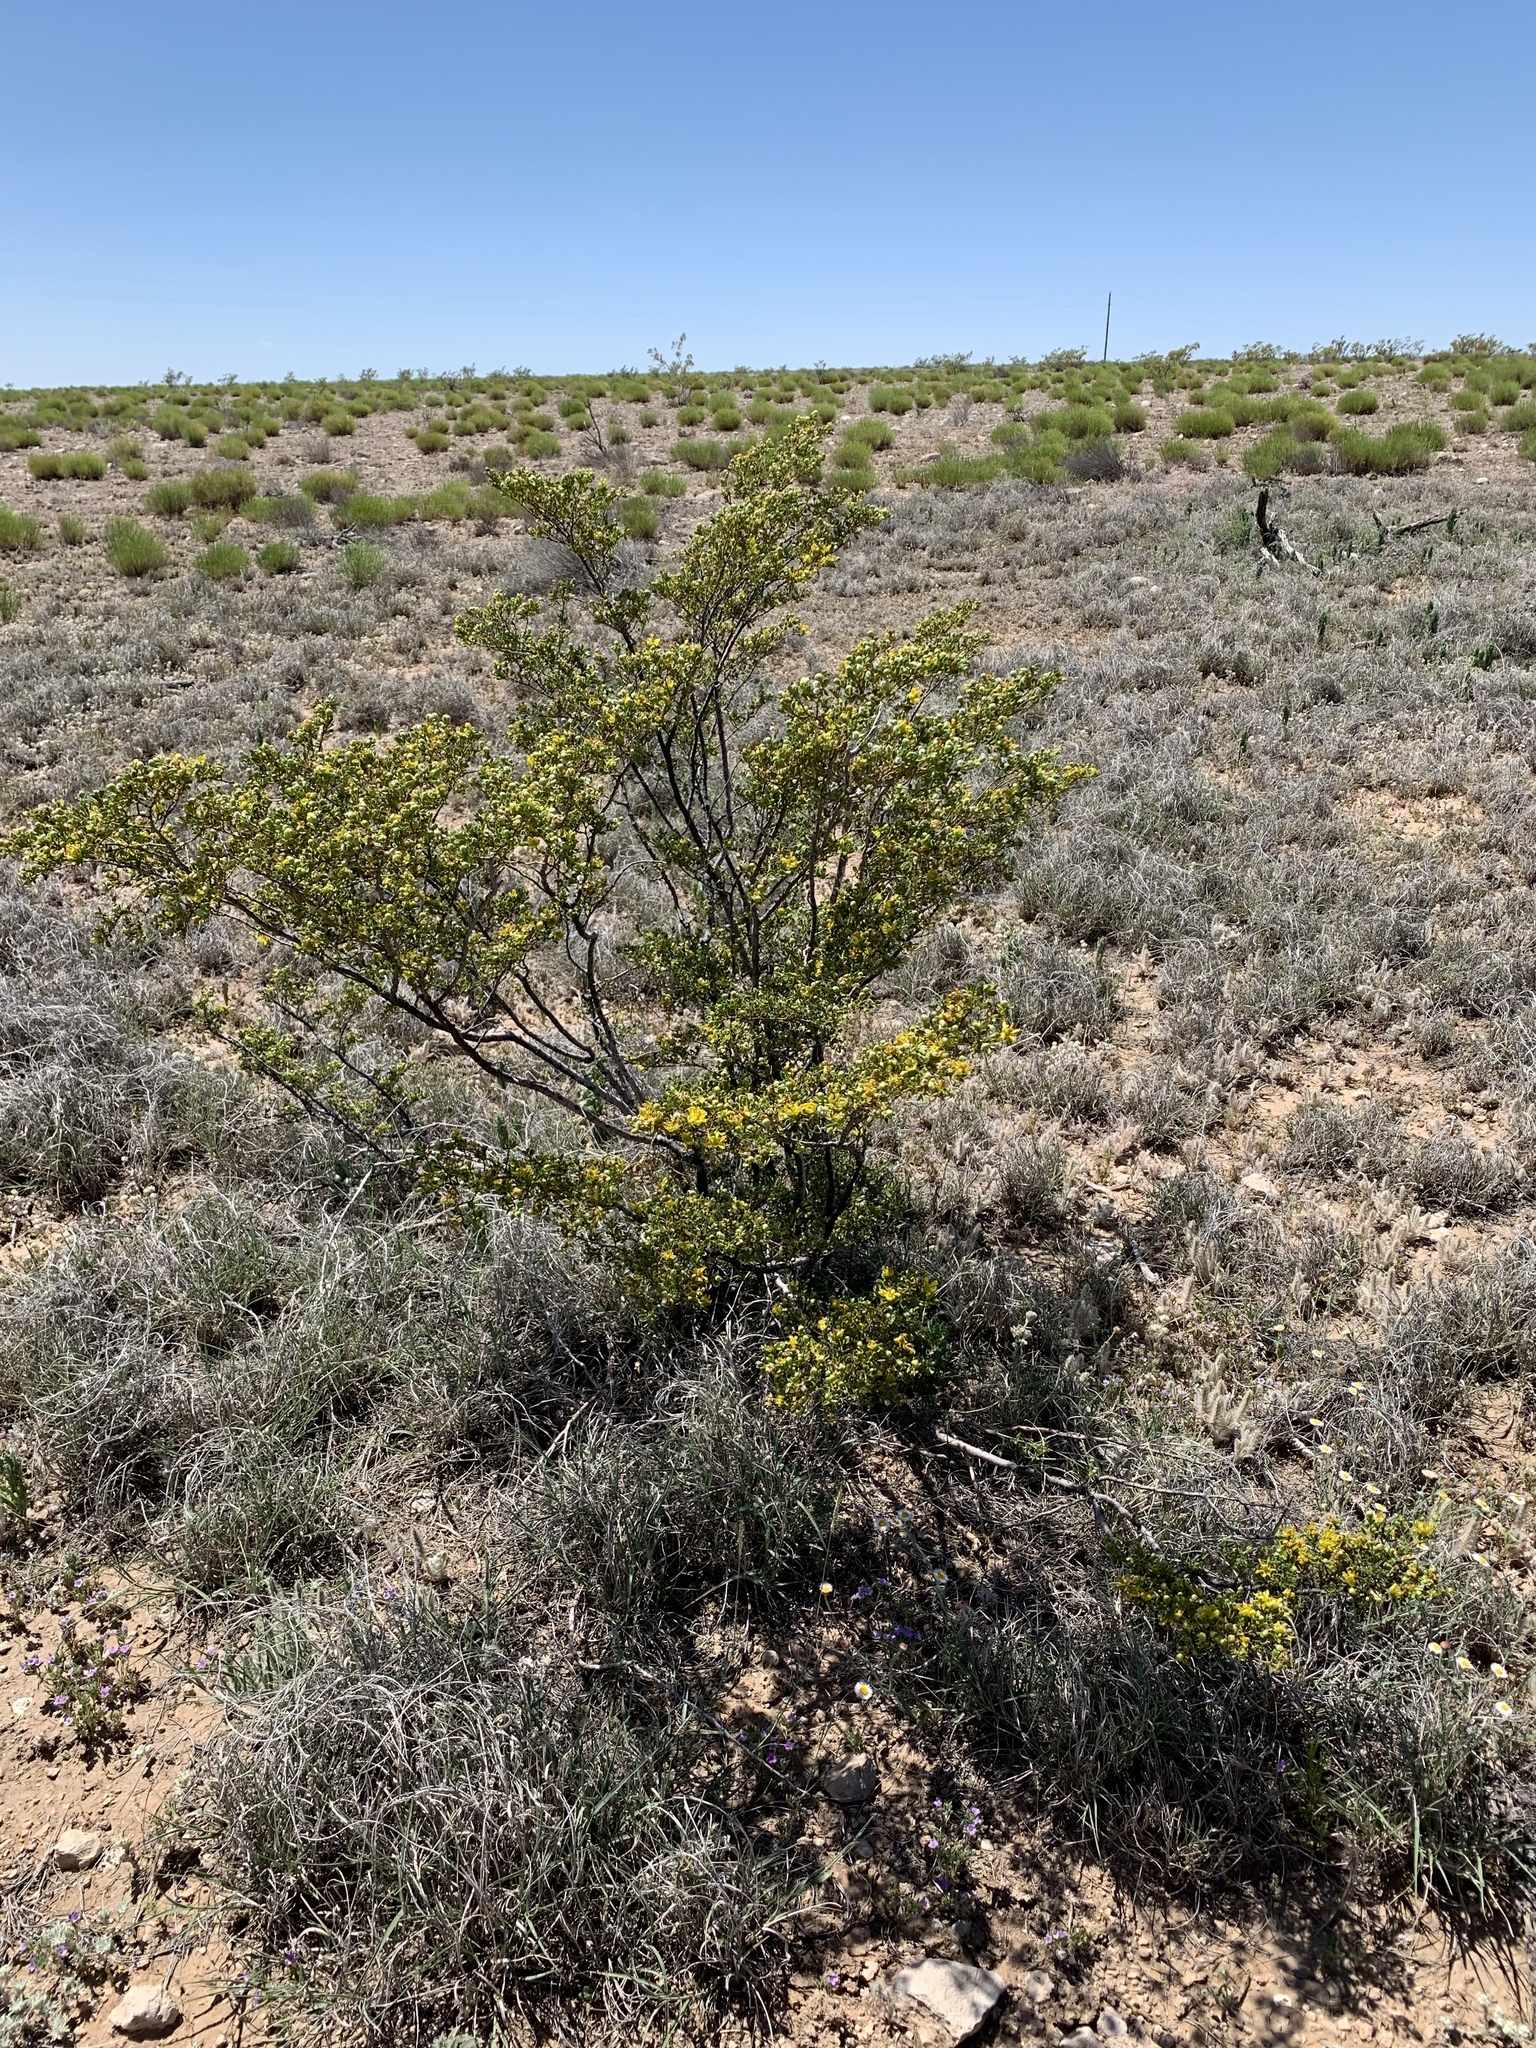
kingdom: Plantae
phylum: Tracheophyta
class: Magnoliopsida
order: Zygophyllales
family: Zygophyllaceae
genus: Larrea
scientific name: Larrea tridentata
